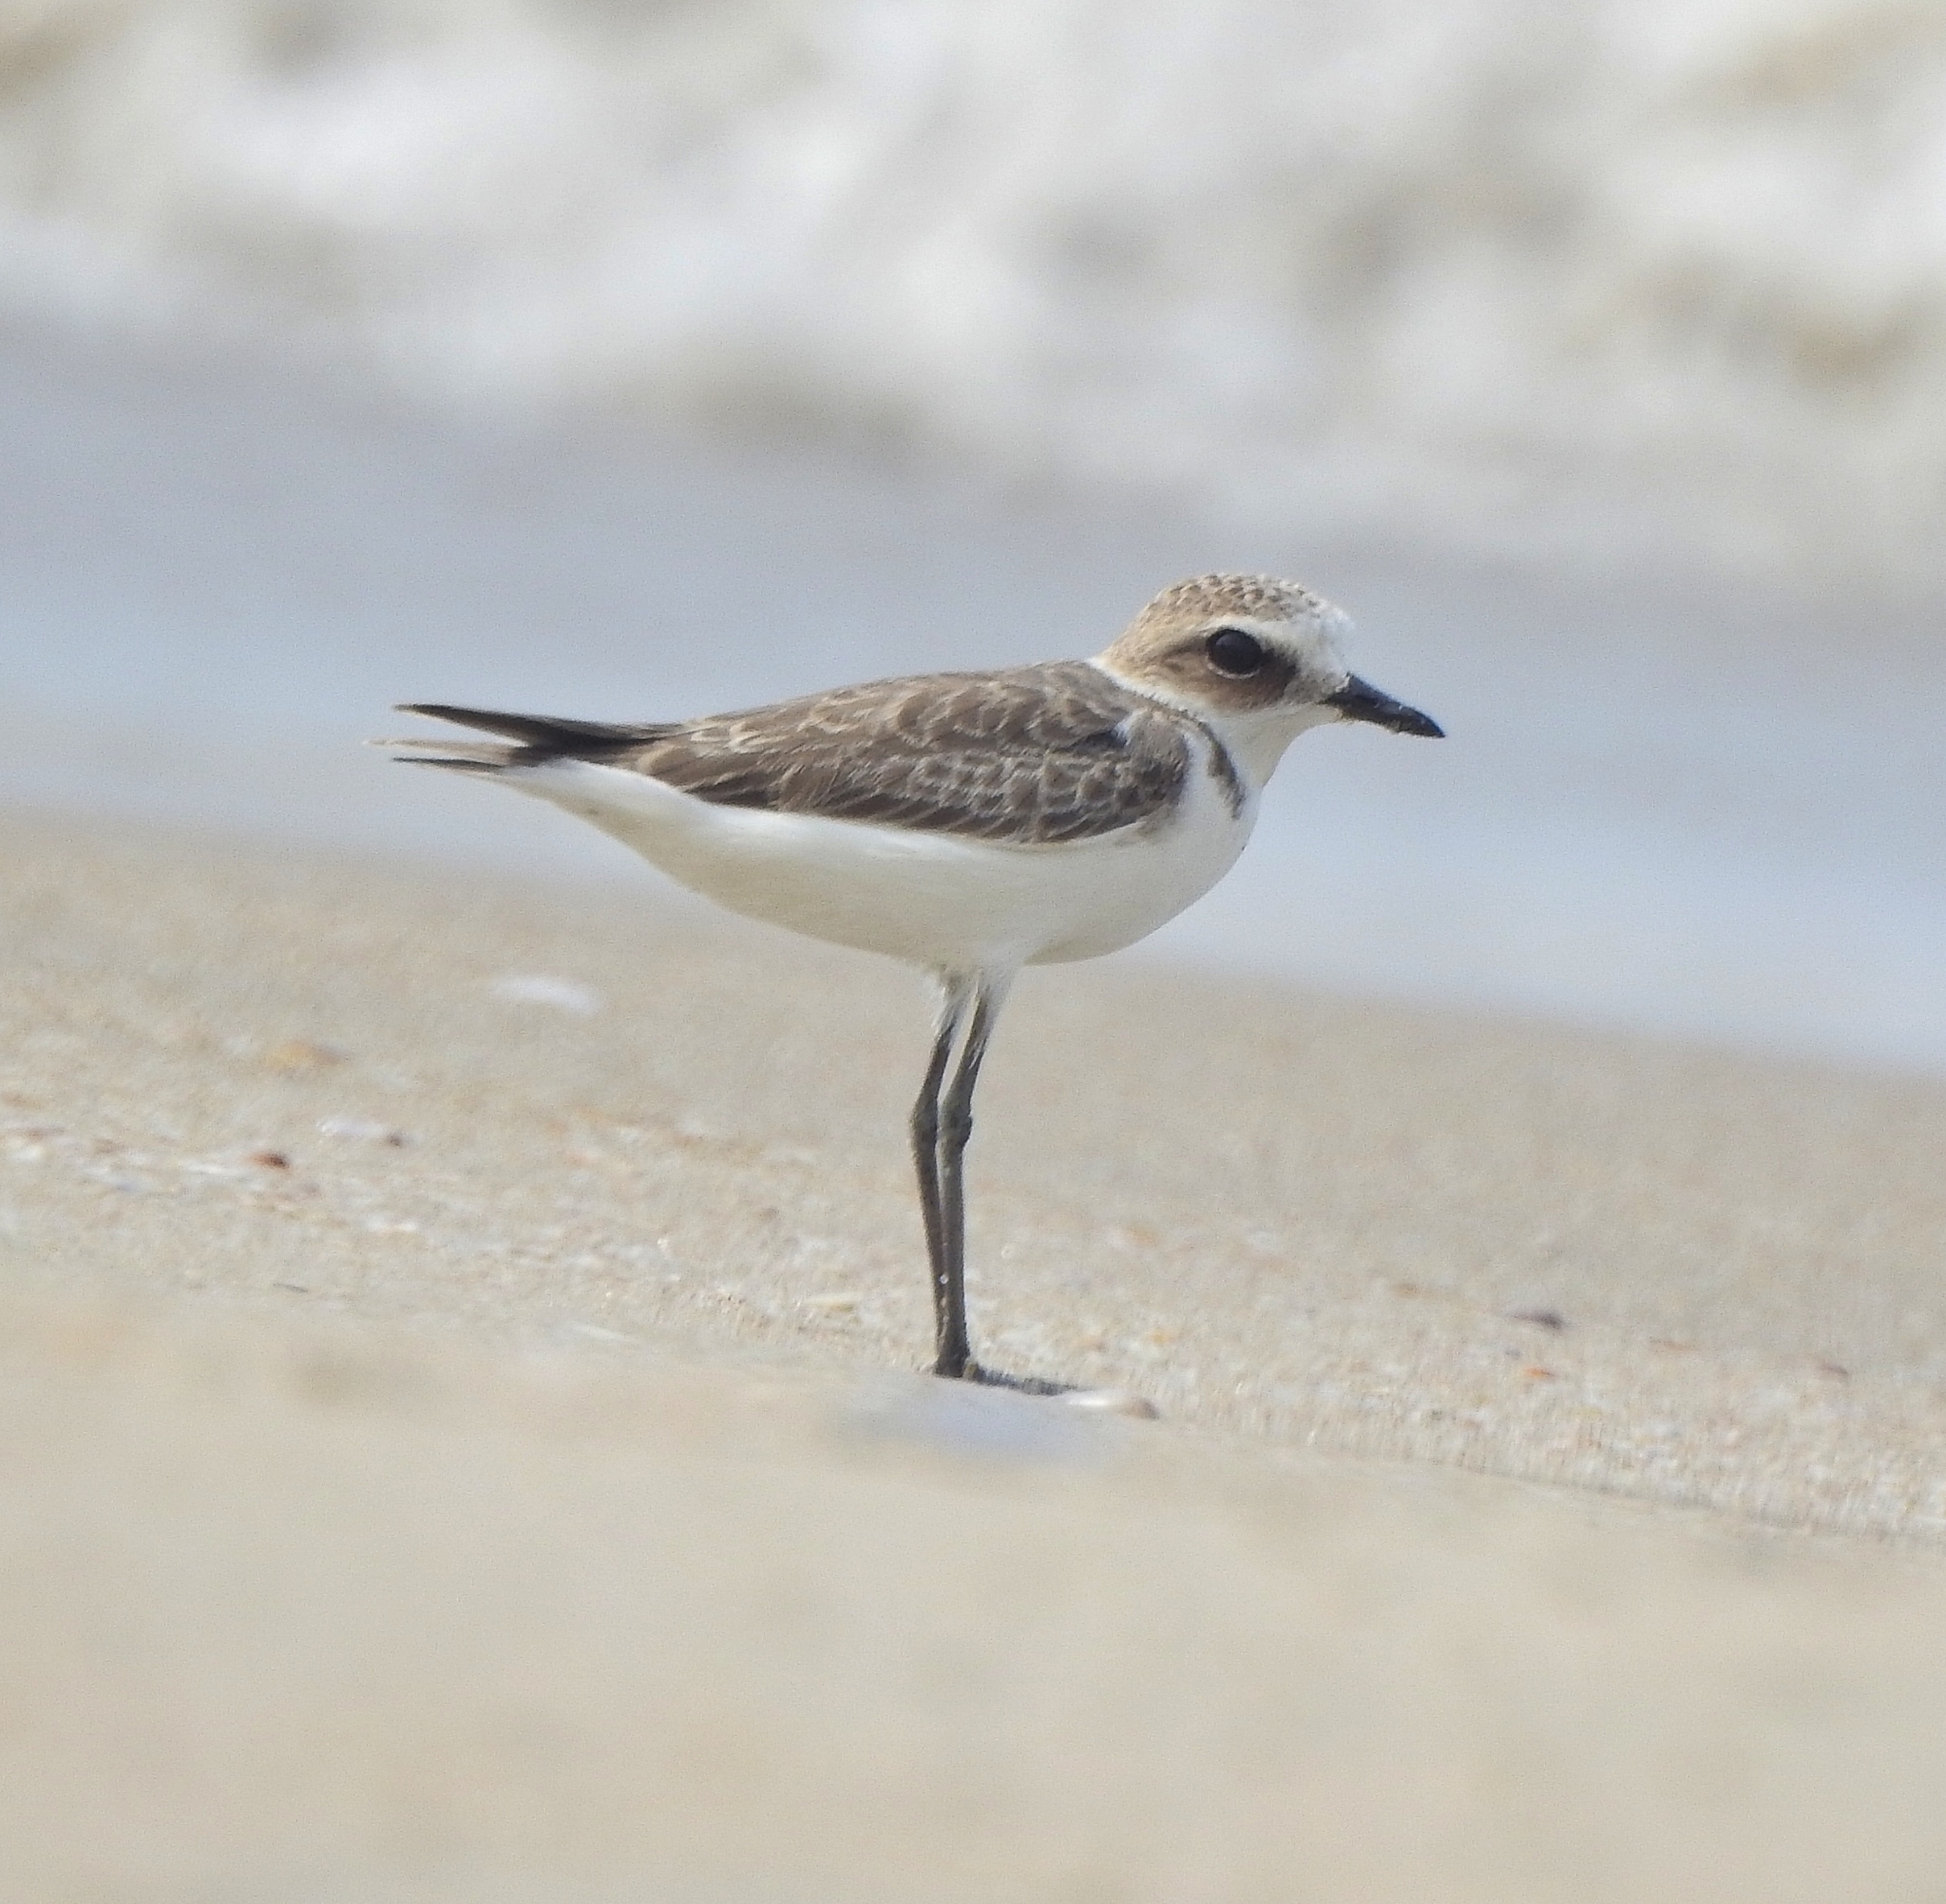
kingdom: Animalia
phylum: Chordata
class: Aves
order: Charadriiformes
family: Charadriidae
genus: Charadrius
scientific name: Charadrius alexandrinus
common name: Kentish plover
